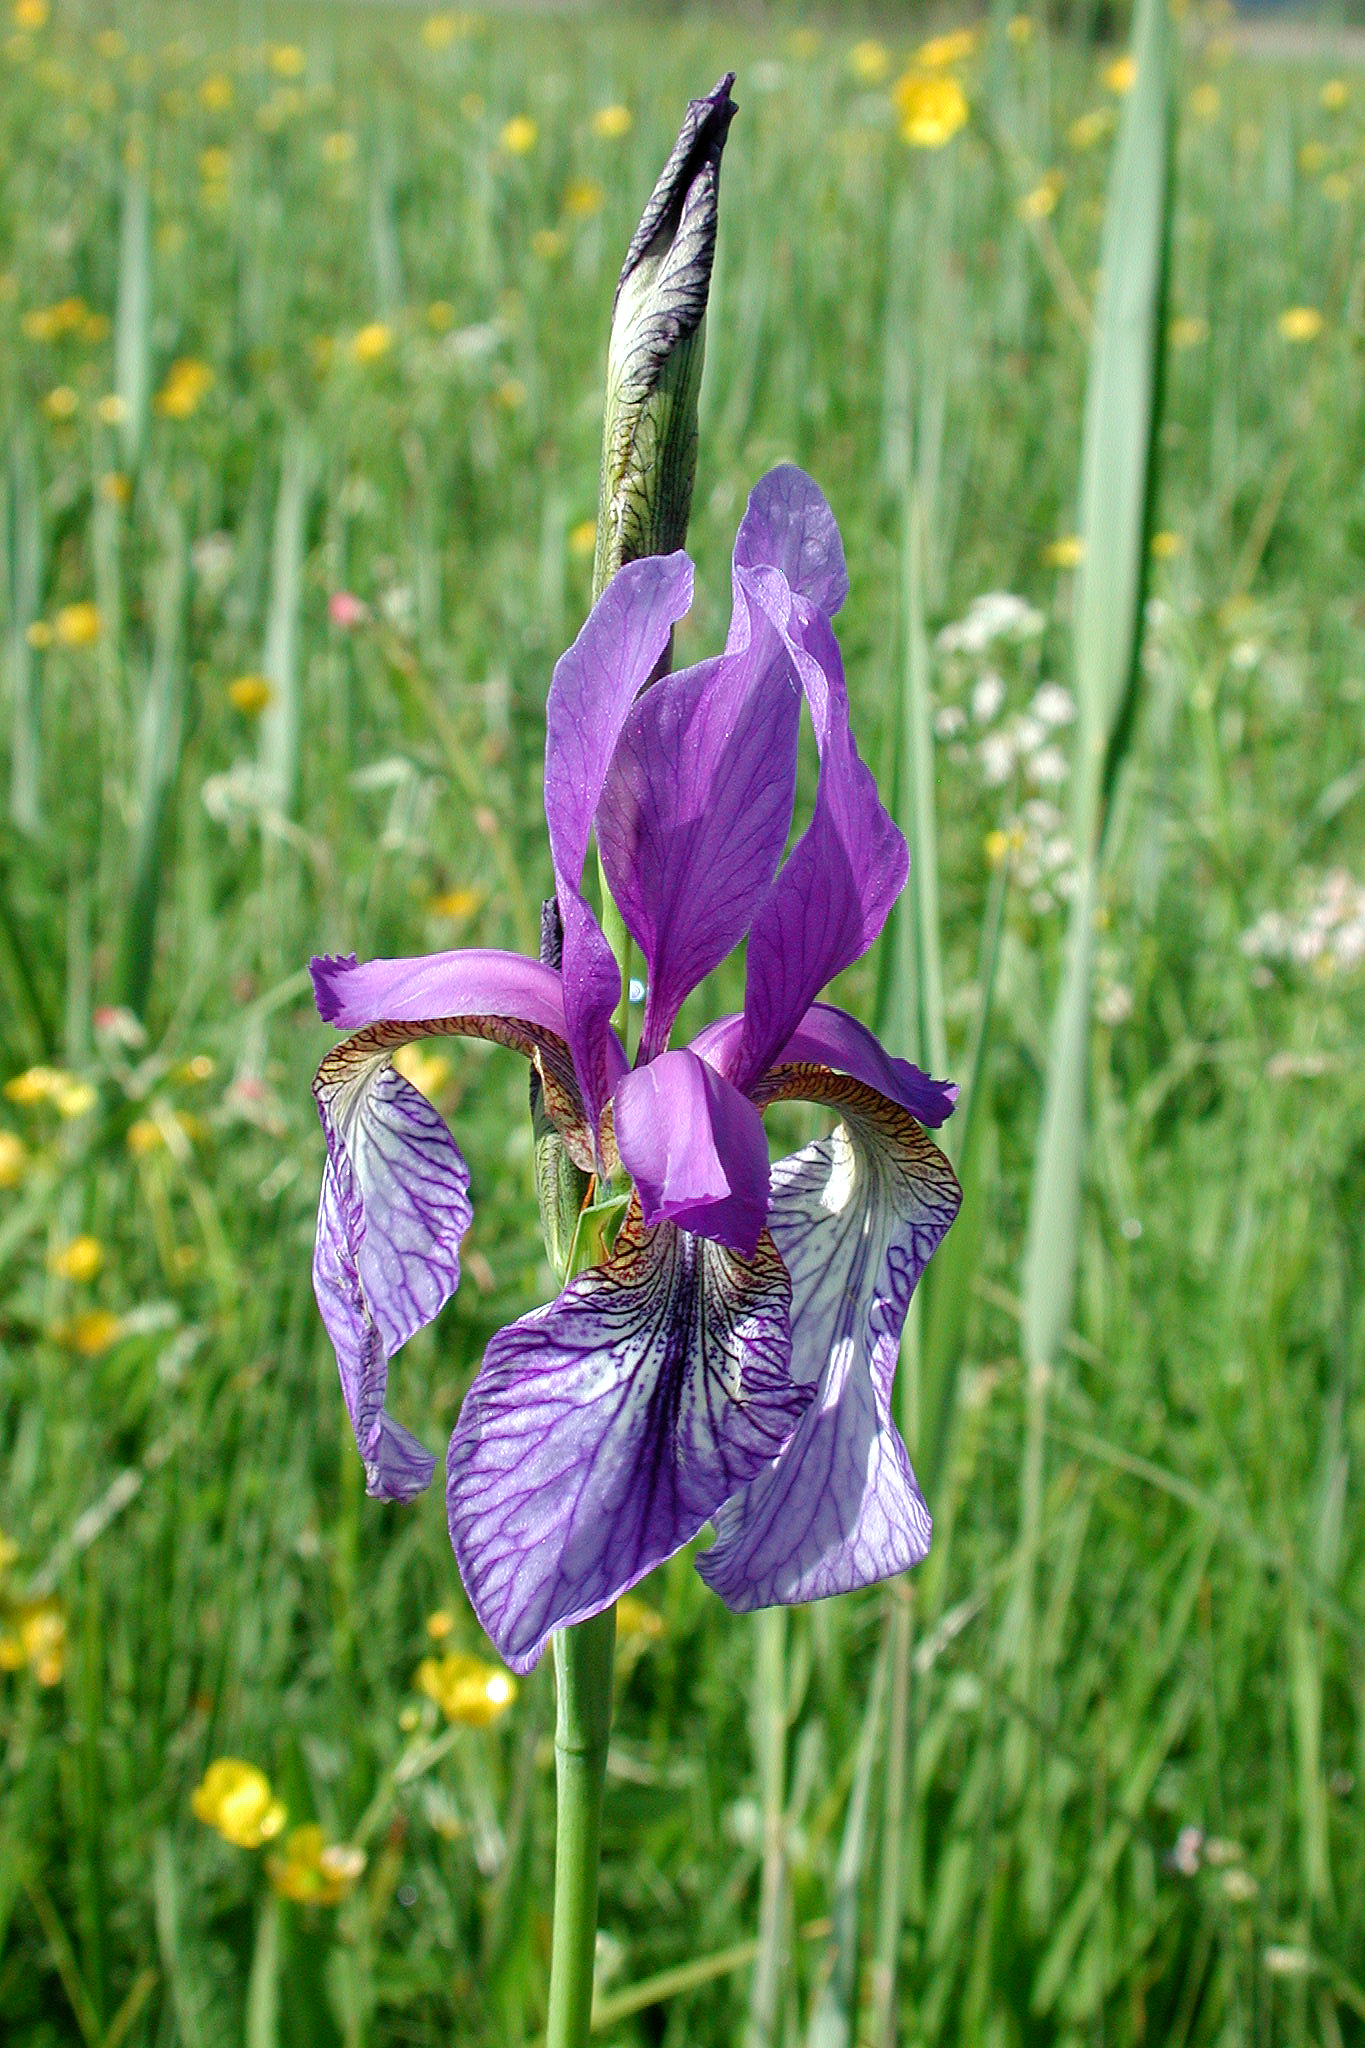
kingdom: Plantae
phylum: Tracheophyta
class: Liliopsida
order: Asparagales
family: Iridaceae
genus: Iris
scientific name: Iris sibirica
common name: Siberian iris
